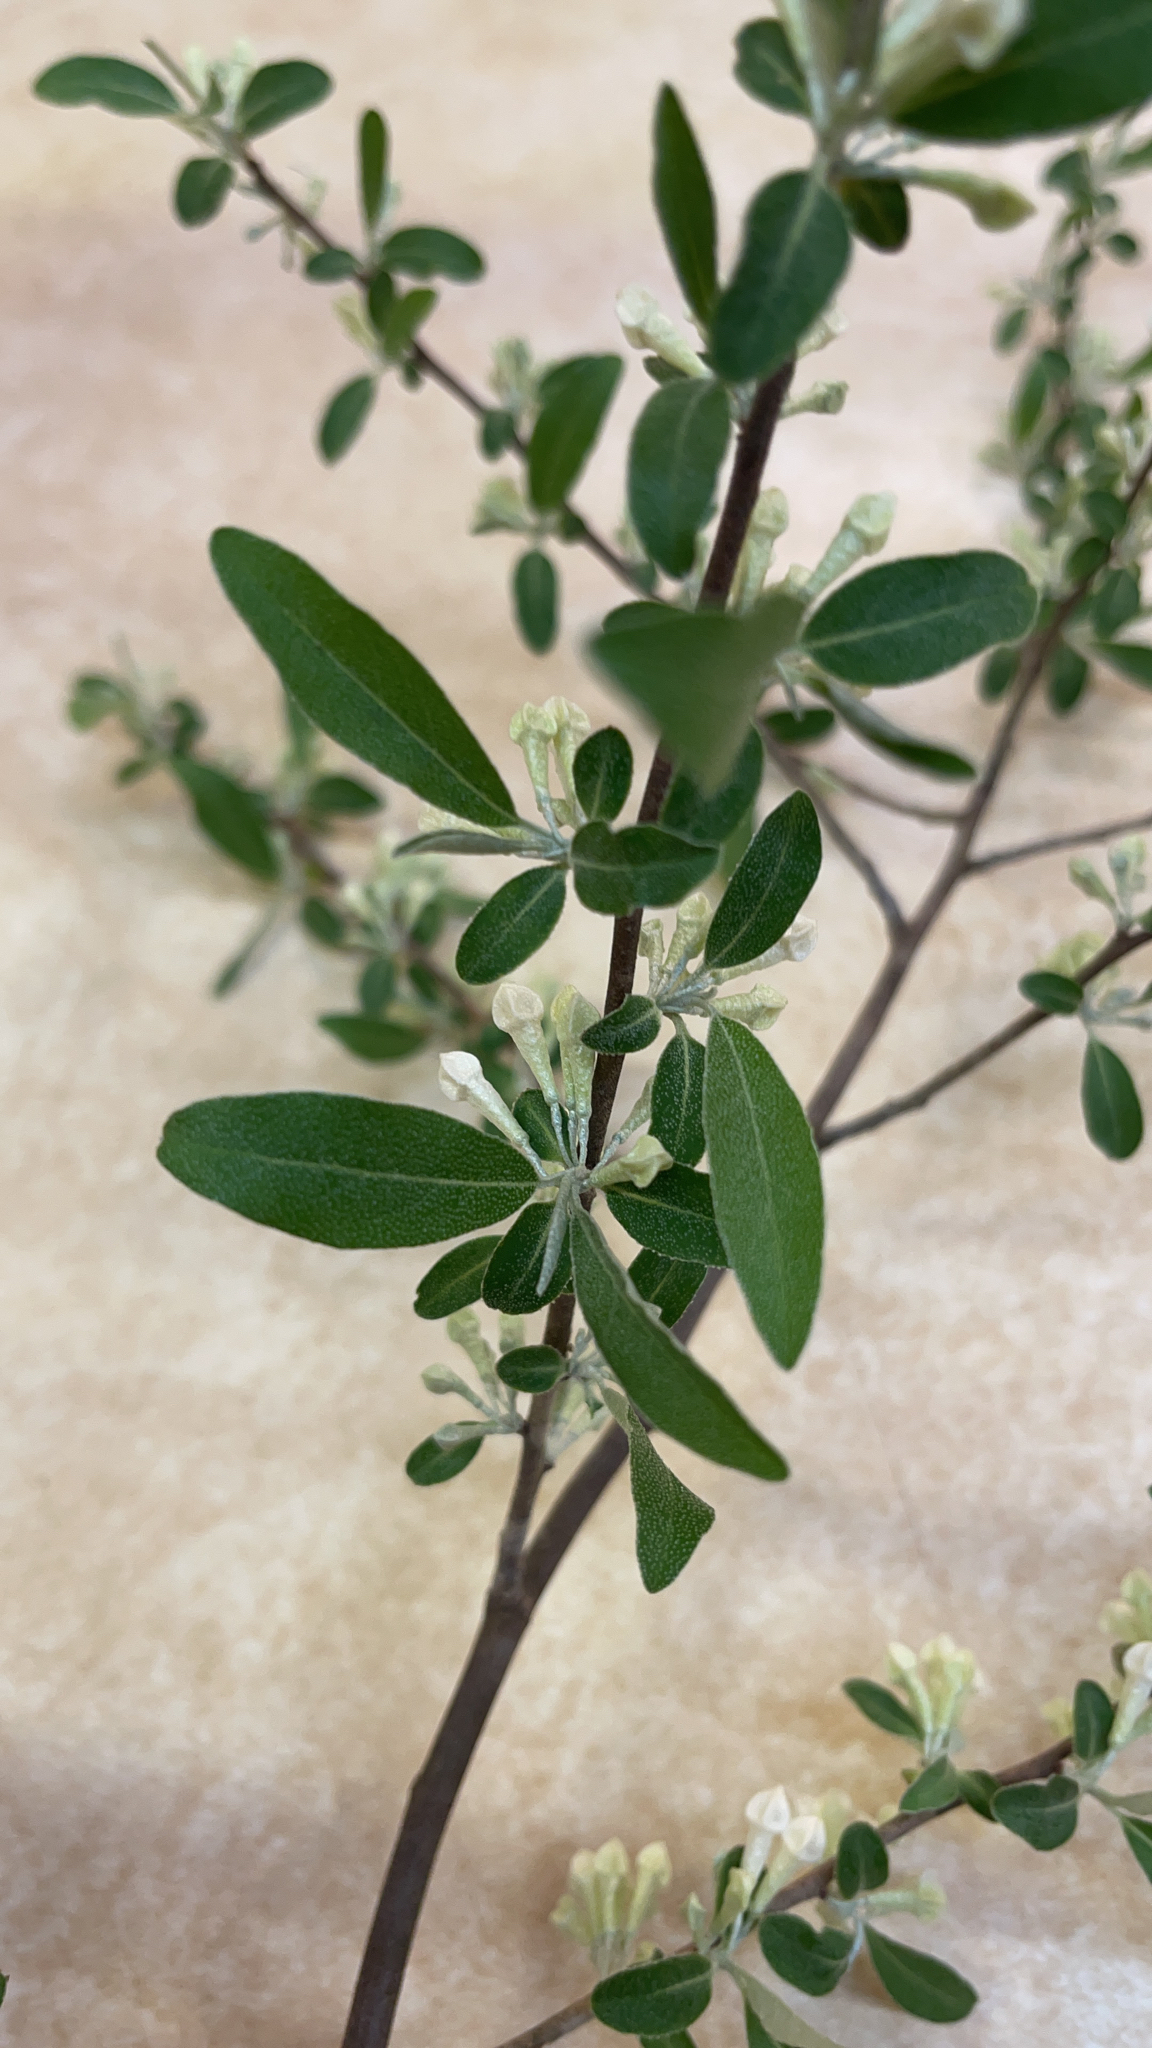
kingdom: Plantae
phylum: Tracheophyta
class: Magnoliopsida
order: Rosales
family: Elaeagnaceae
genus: Elaeagnus
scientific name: Elaeagnus umbellata
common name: Autumn olive
